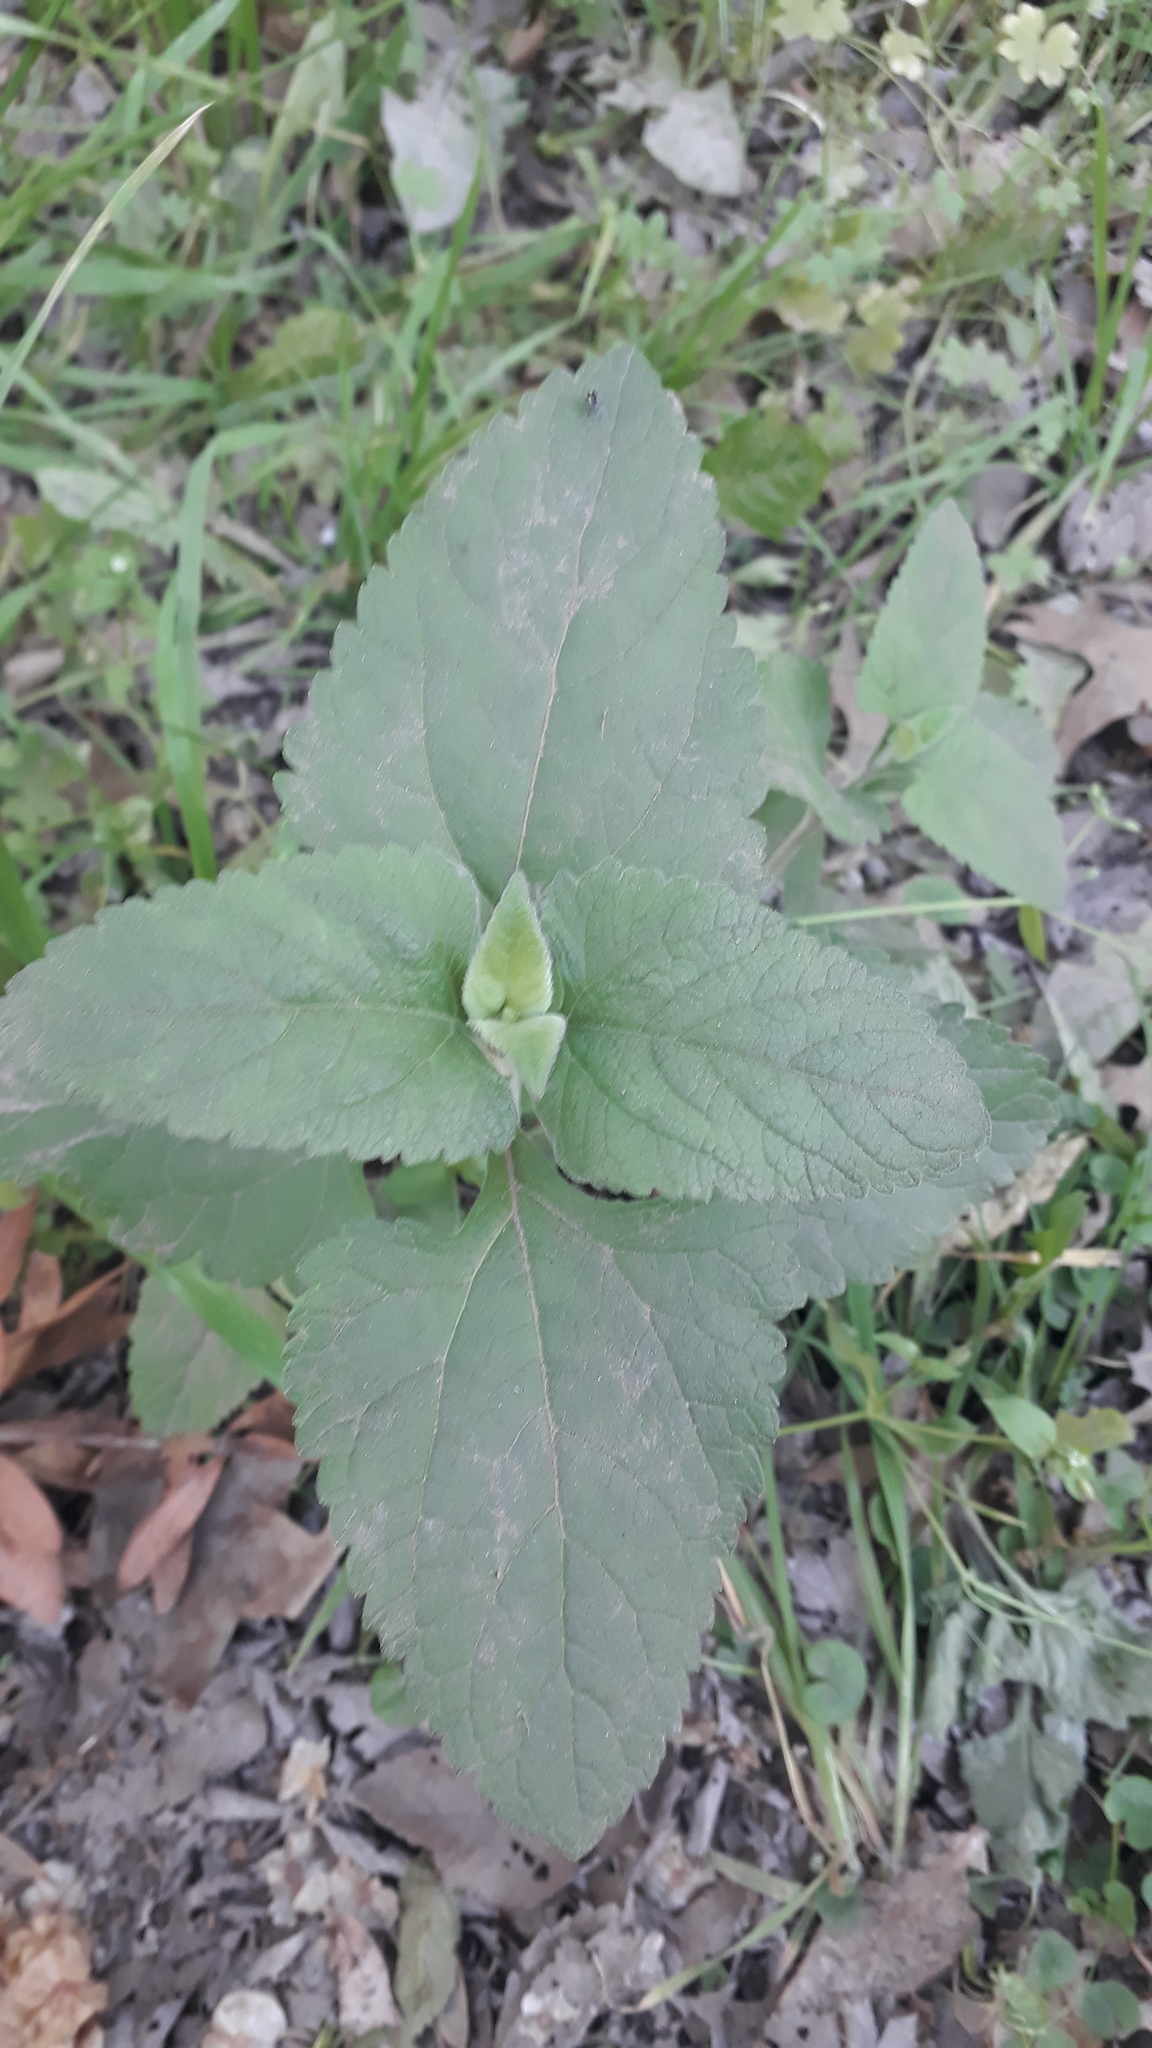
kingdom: Plantae
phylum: Tracheophyta
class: Magnoliopsida
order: Asterales
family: Asteraceae
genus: Austroeupatorium
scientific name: Austroeupatorium inulifolium
